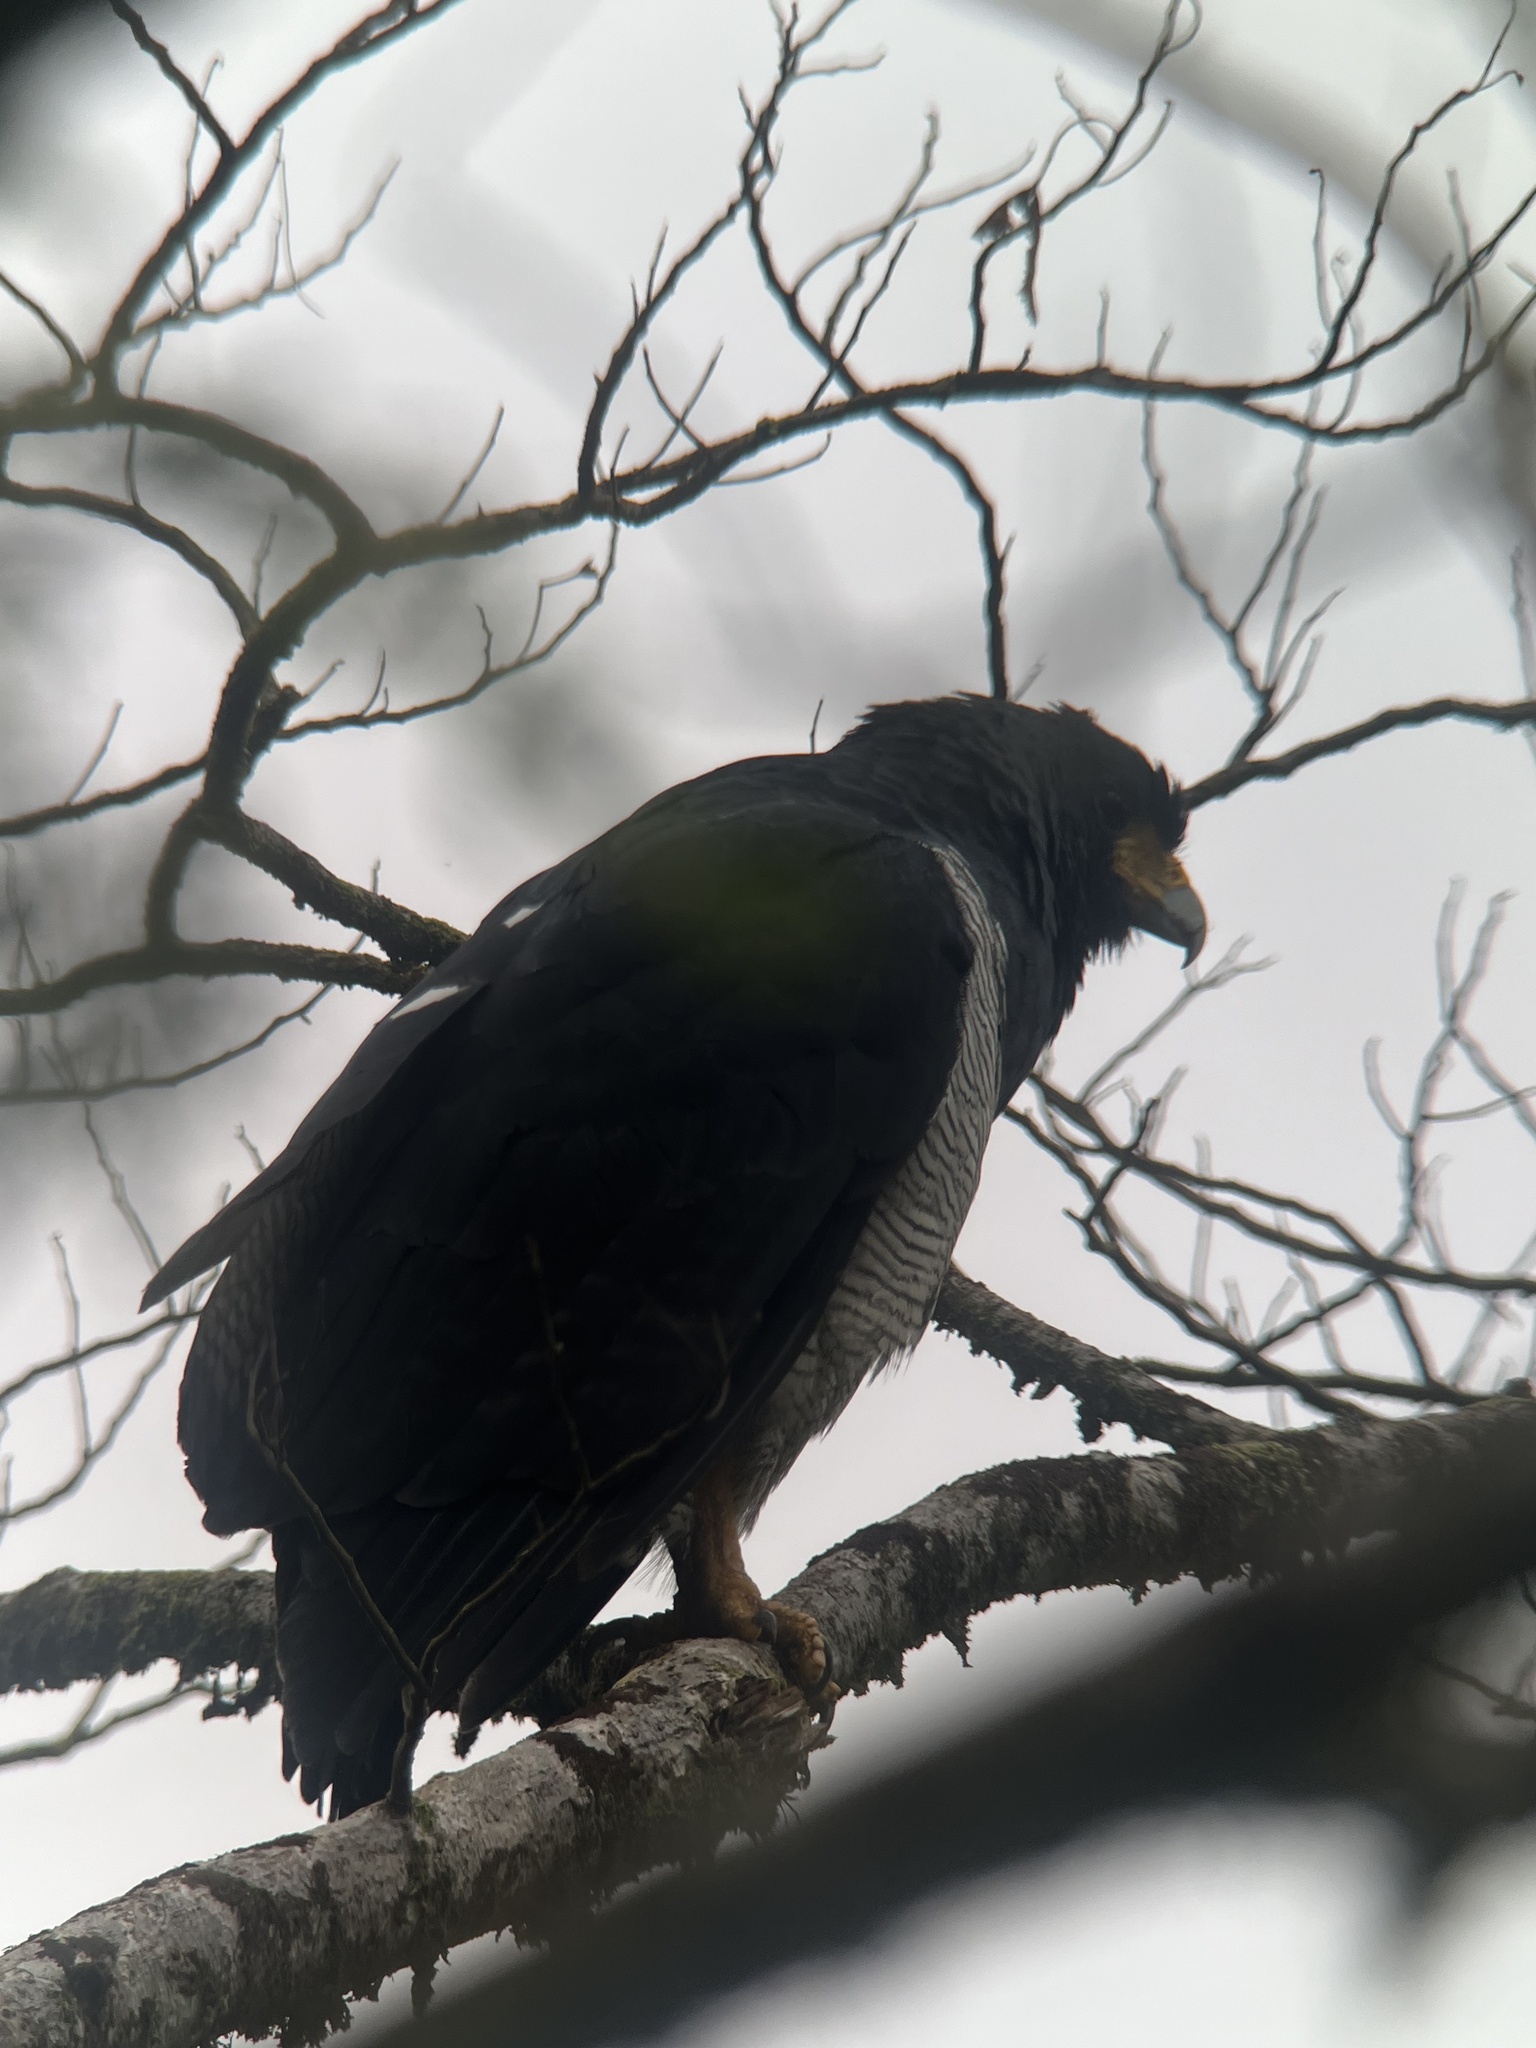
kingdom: Animalia
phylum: Chordata
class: Aves
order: Accipitriformes
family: Accipitridae
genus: Leucopternis
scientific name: Leucopternis princeps
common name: Barred hawk
